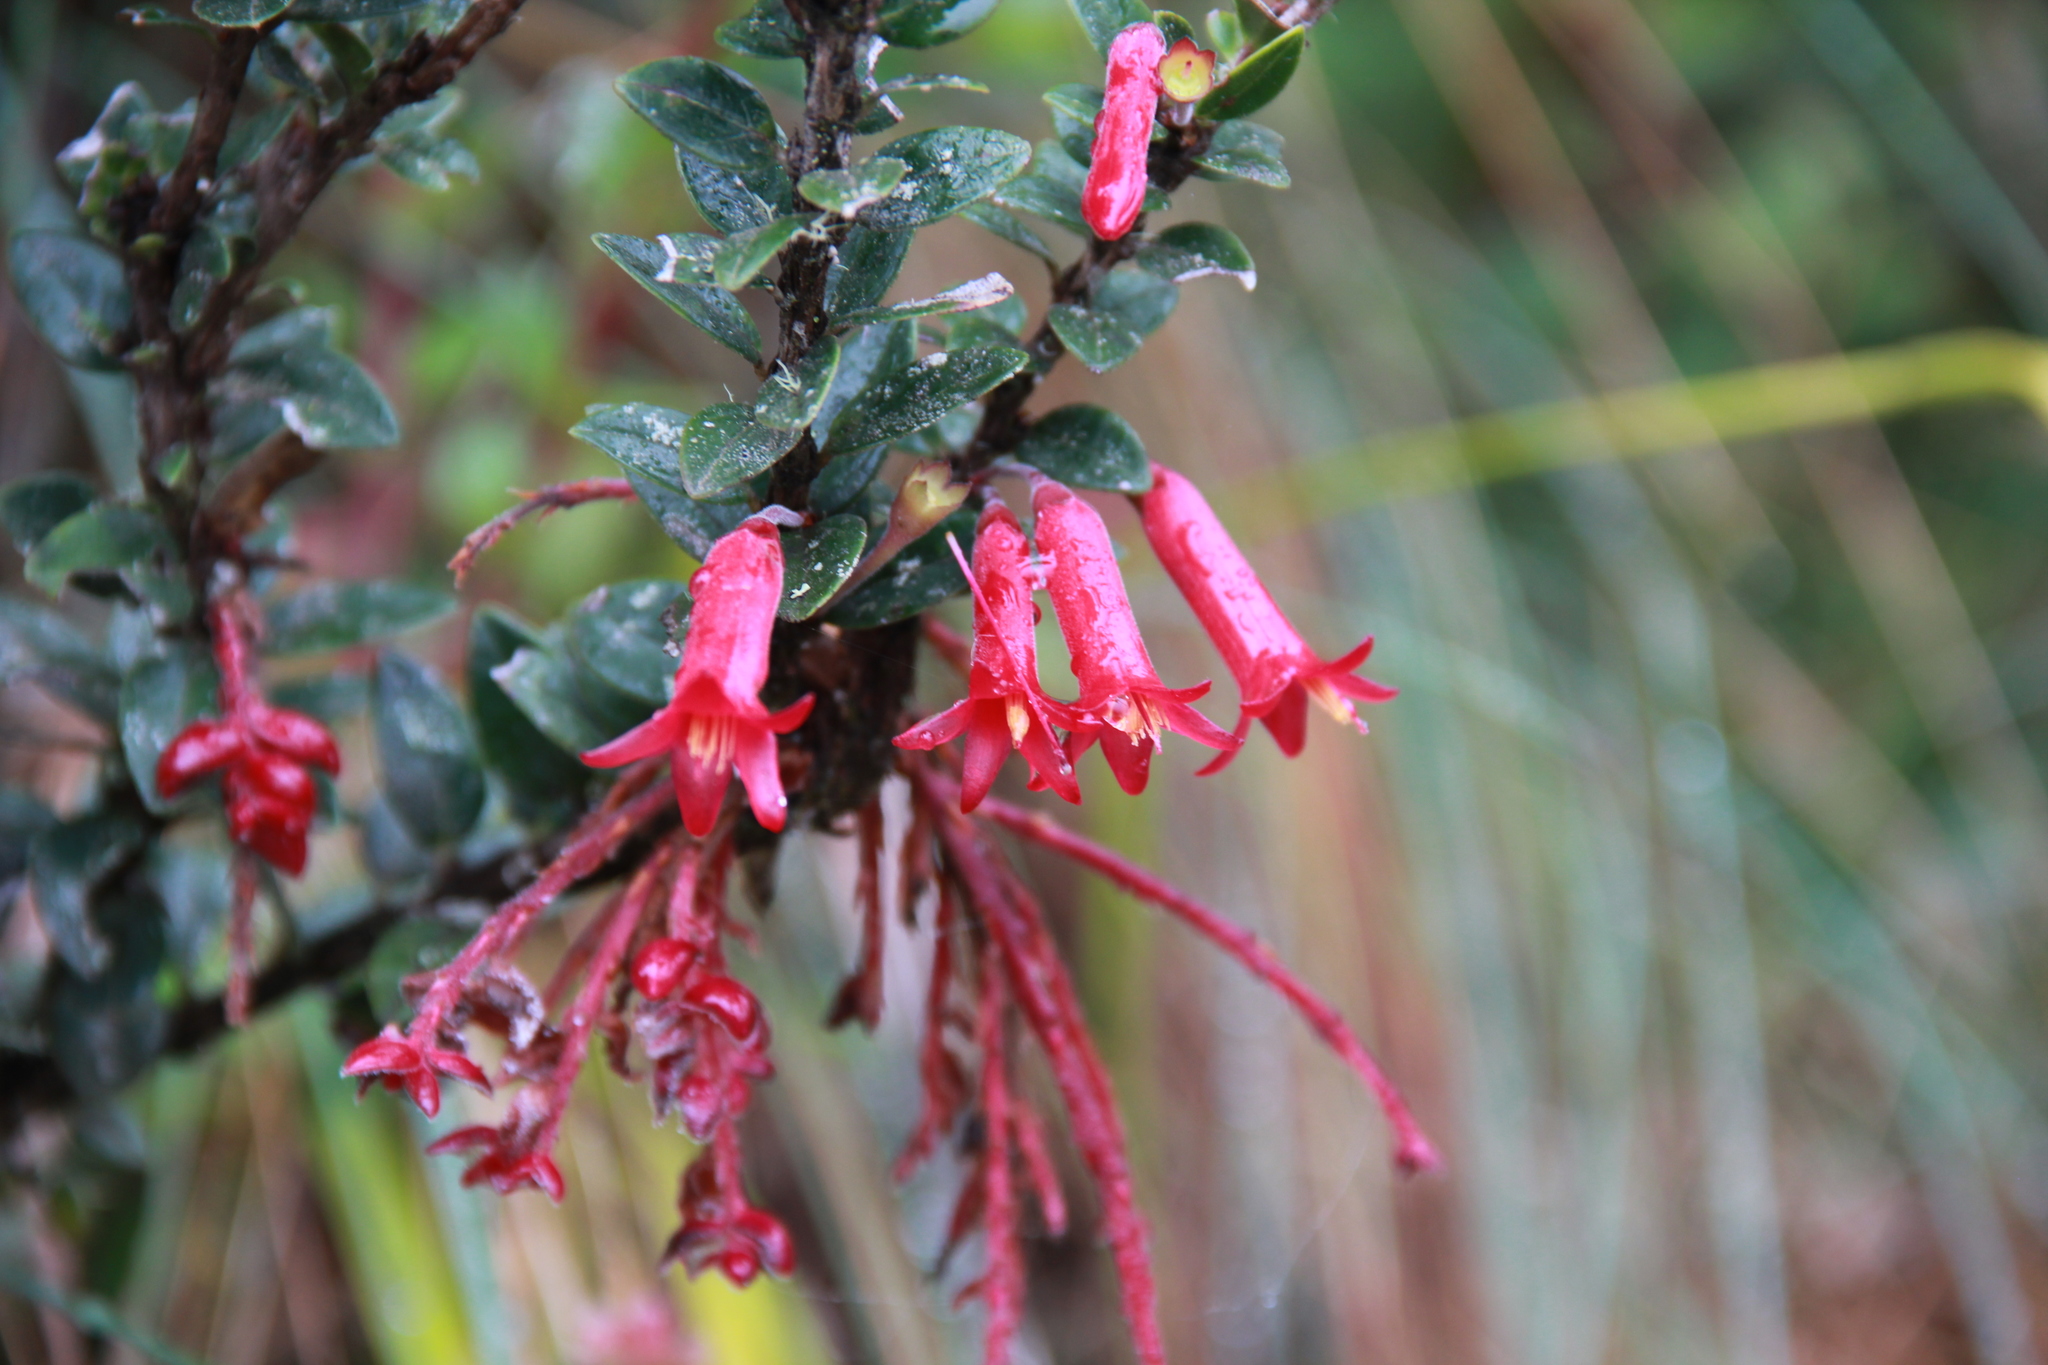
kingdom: Plantae
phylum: Tracheophyta
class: Magnoliopsida
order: Ericales
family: Ericaceae
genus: Demosthenesia
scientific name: Demosthenesia mandonii
